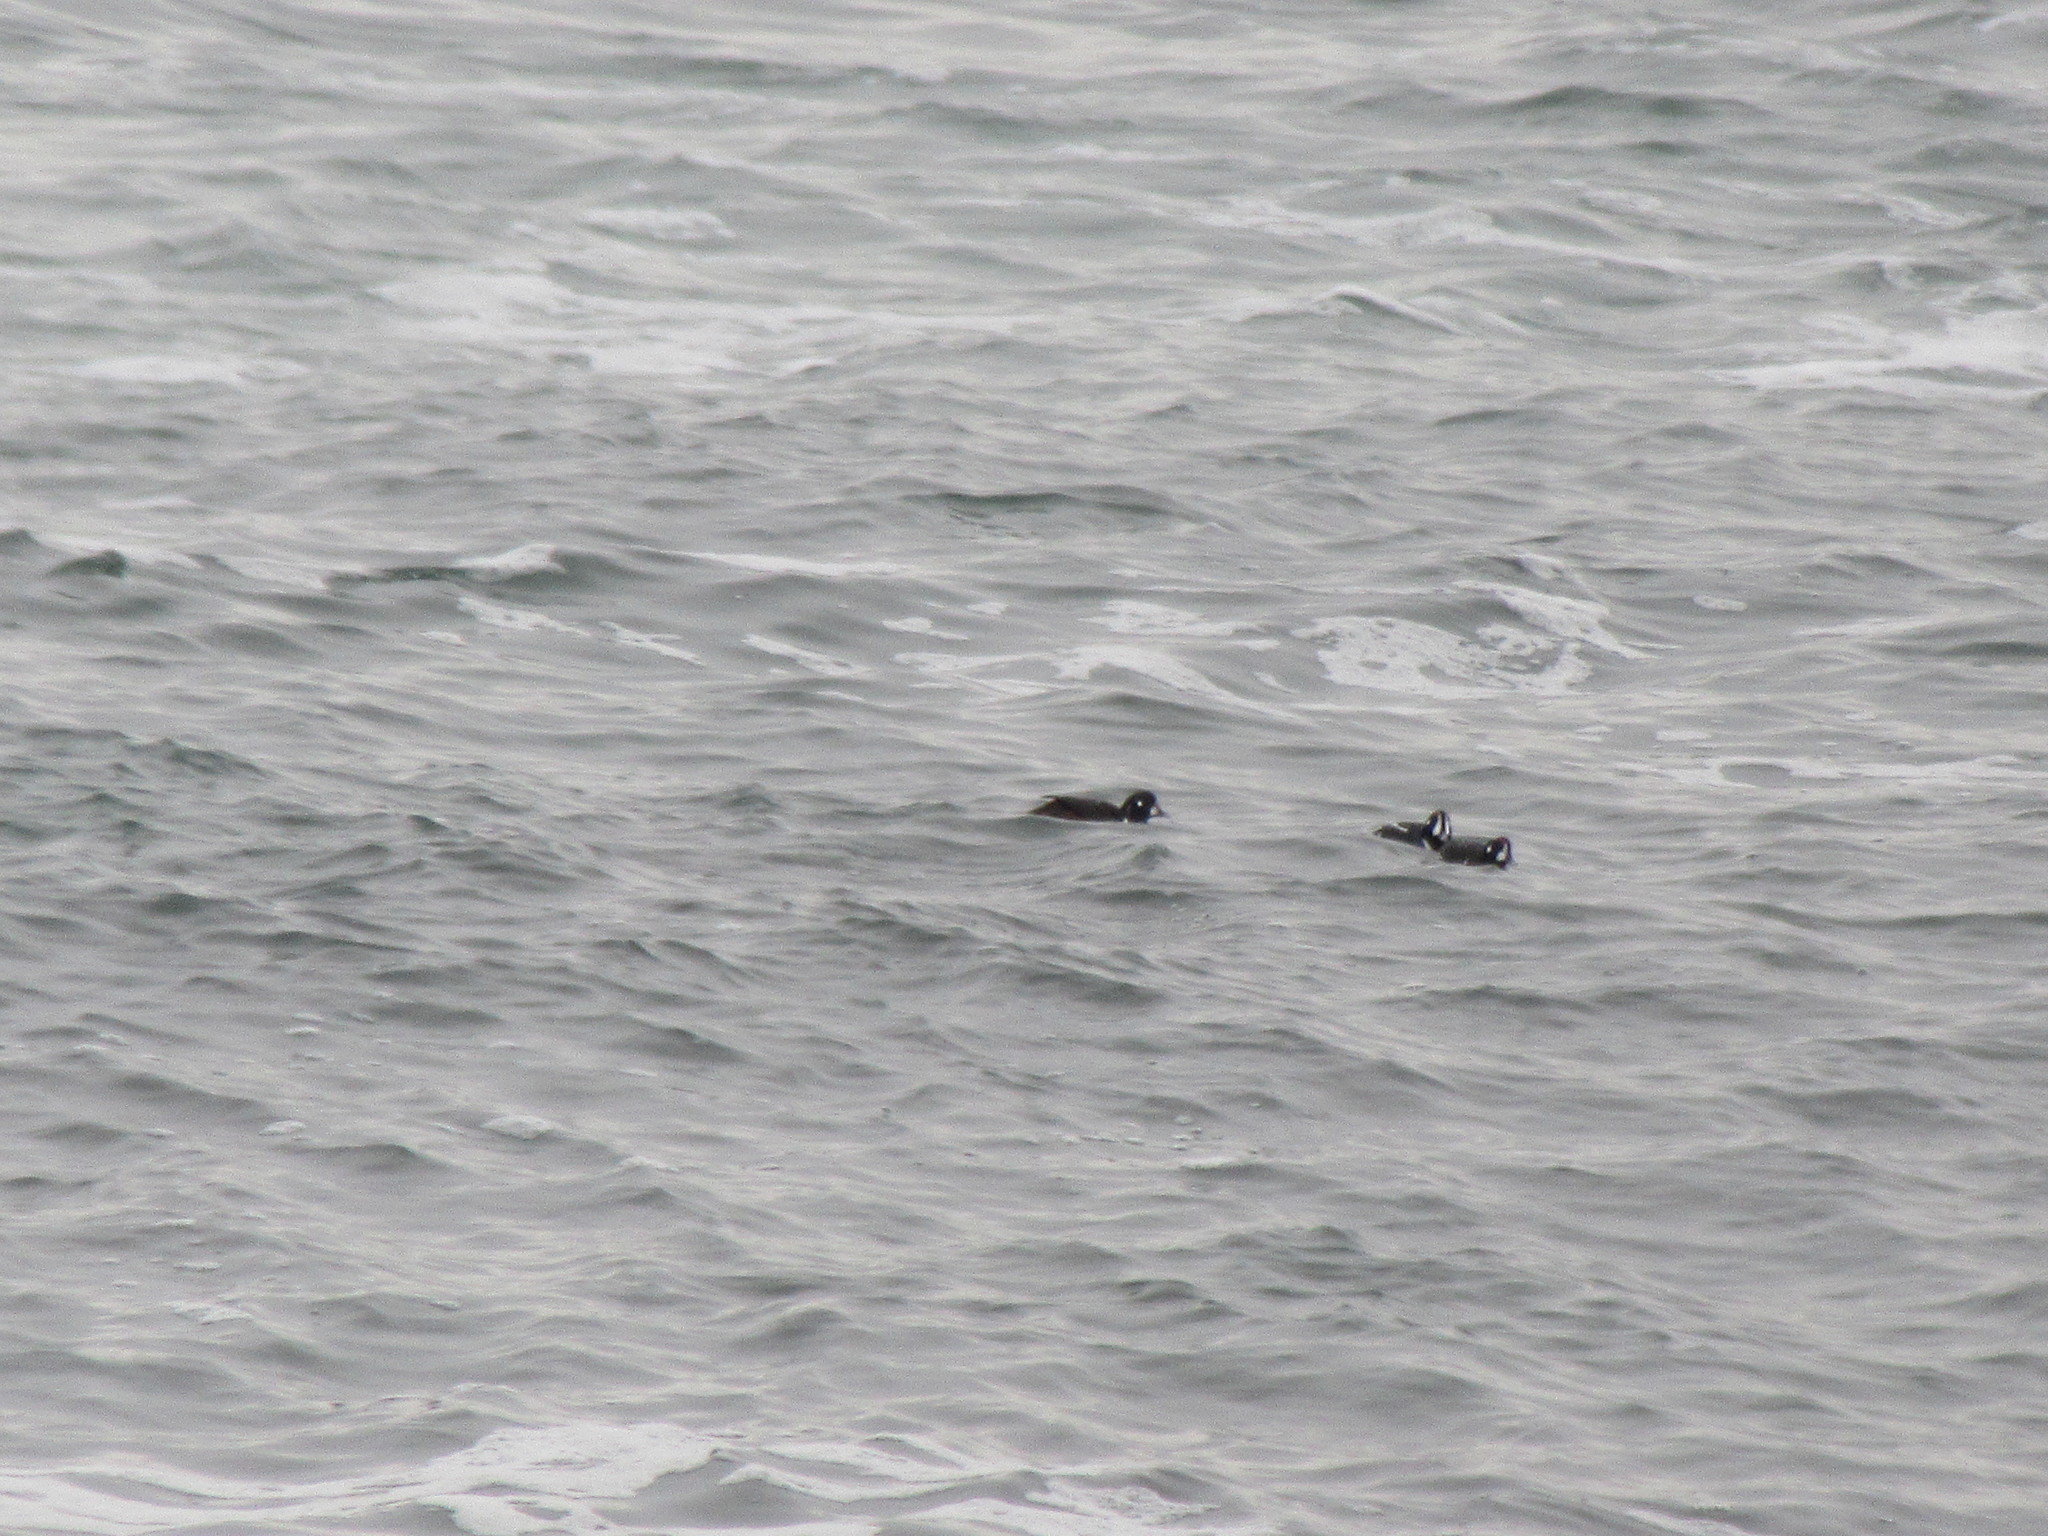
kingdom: Animalia
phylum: Chordata
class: Aves
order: Anseriformes
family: Anatidae
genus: Histrionicus
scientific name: Histrionicus histrionicus
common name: Harlequin duck
